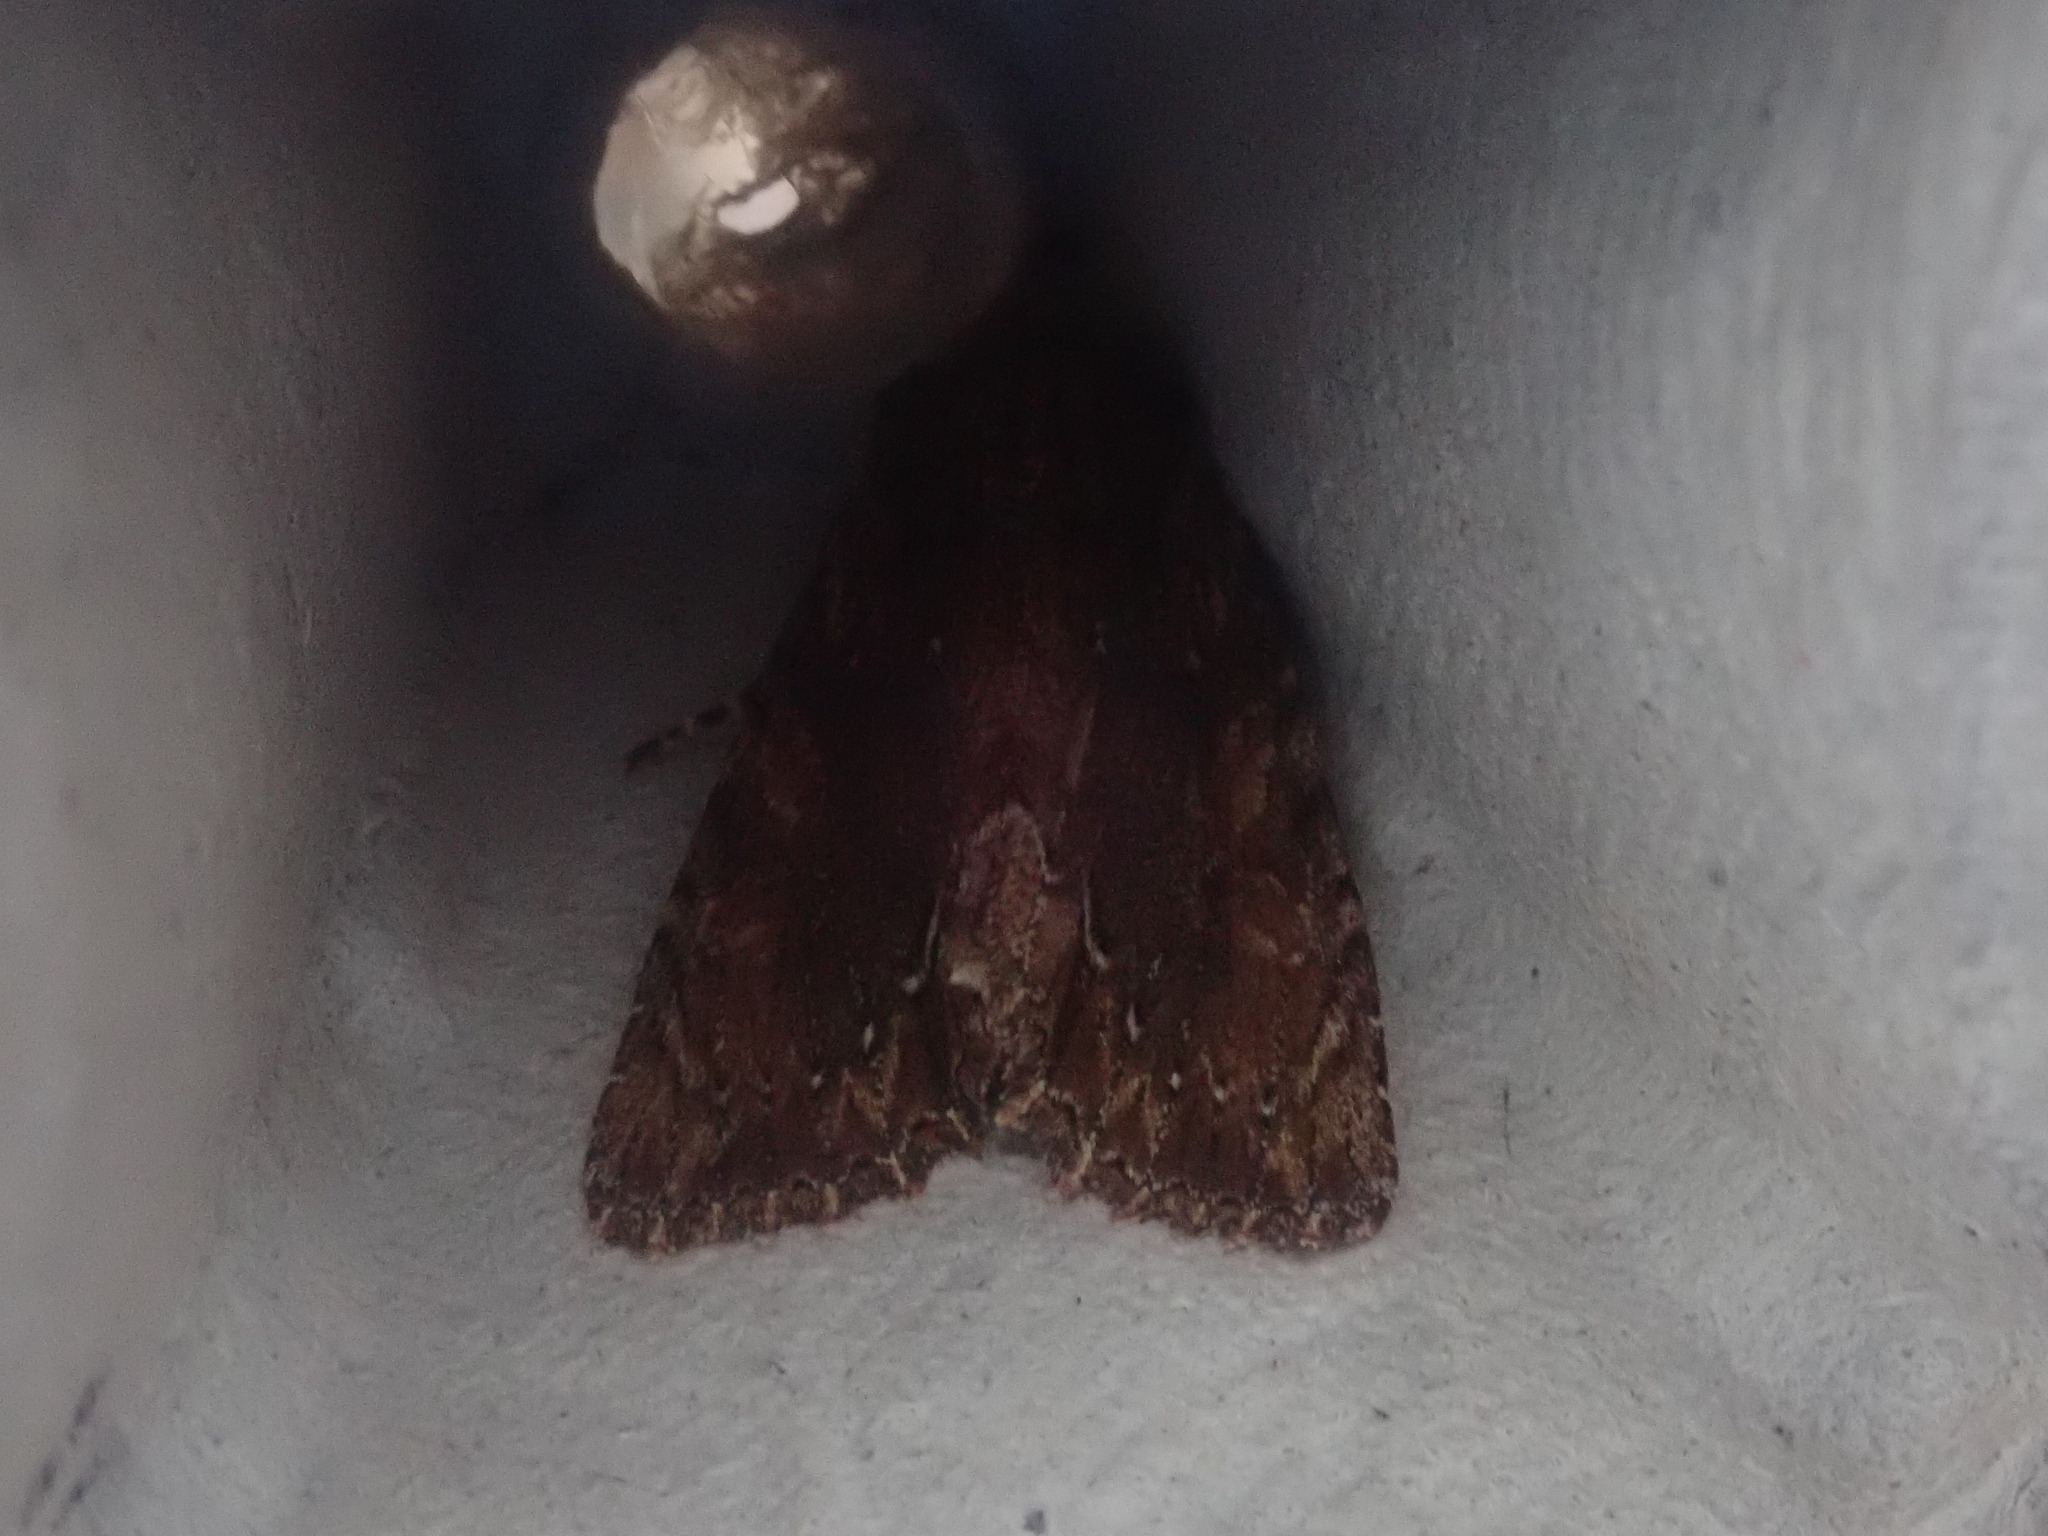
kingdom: Animalia
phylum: Arthropoda
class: Insecta
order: Lepidoptera
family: Noctuidae
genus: Achatia
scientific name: Achatia confusa
